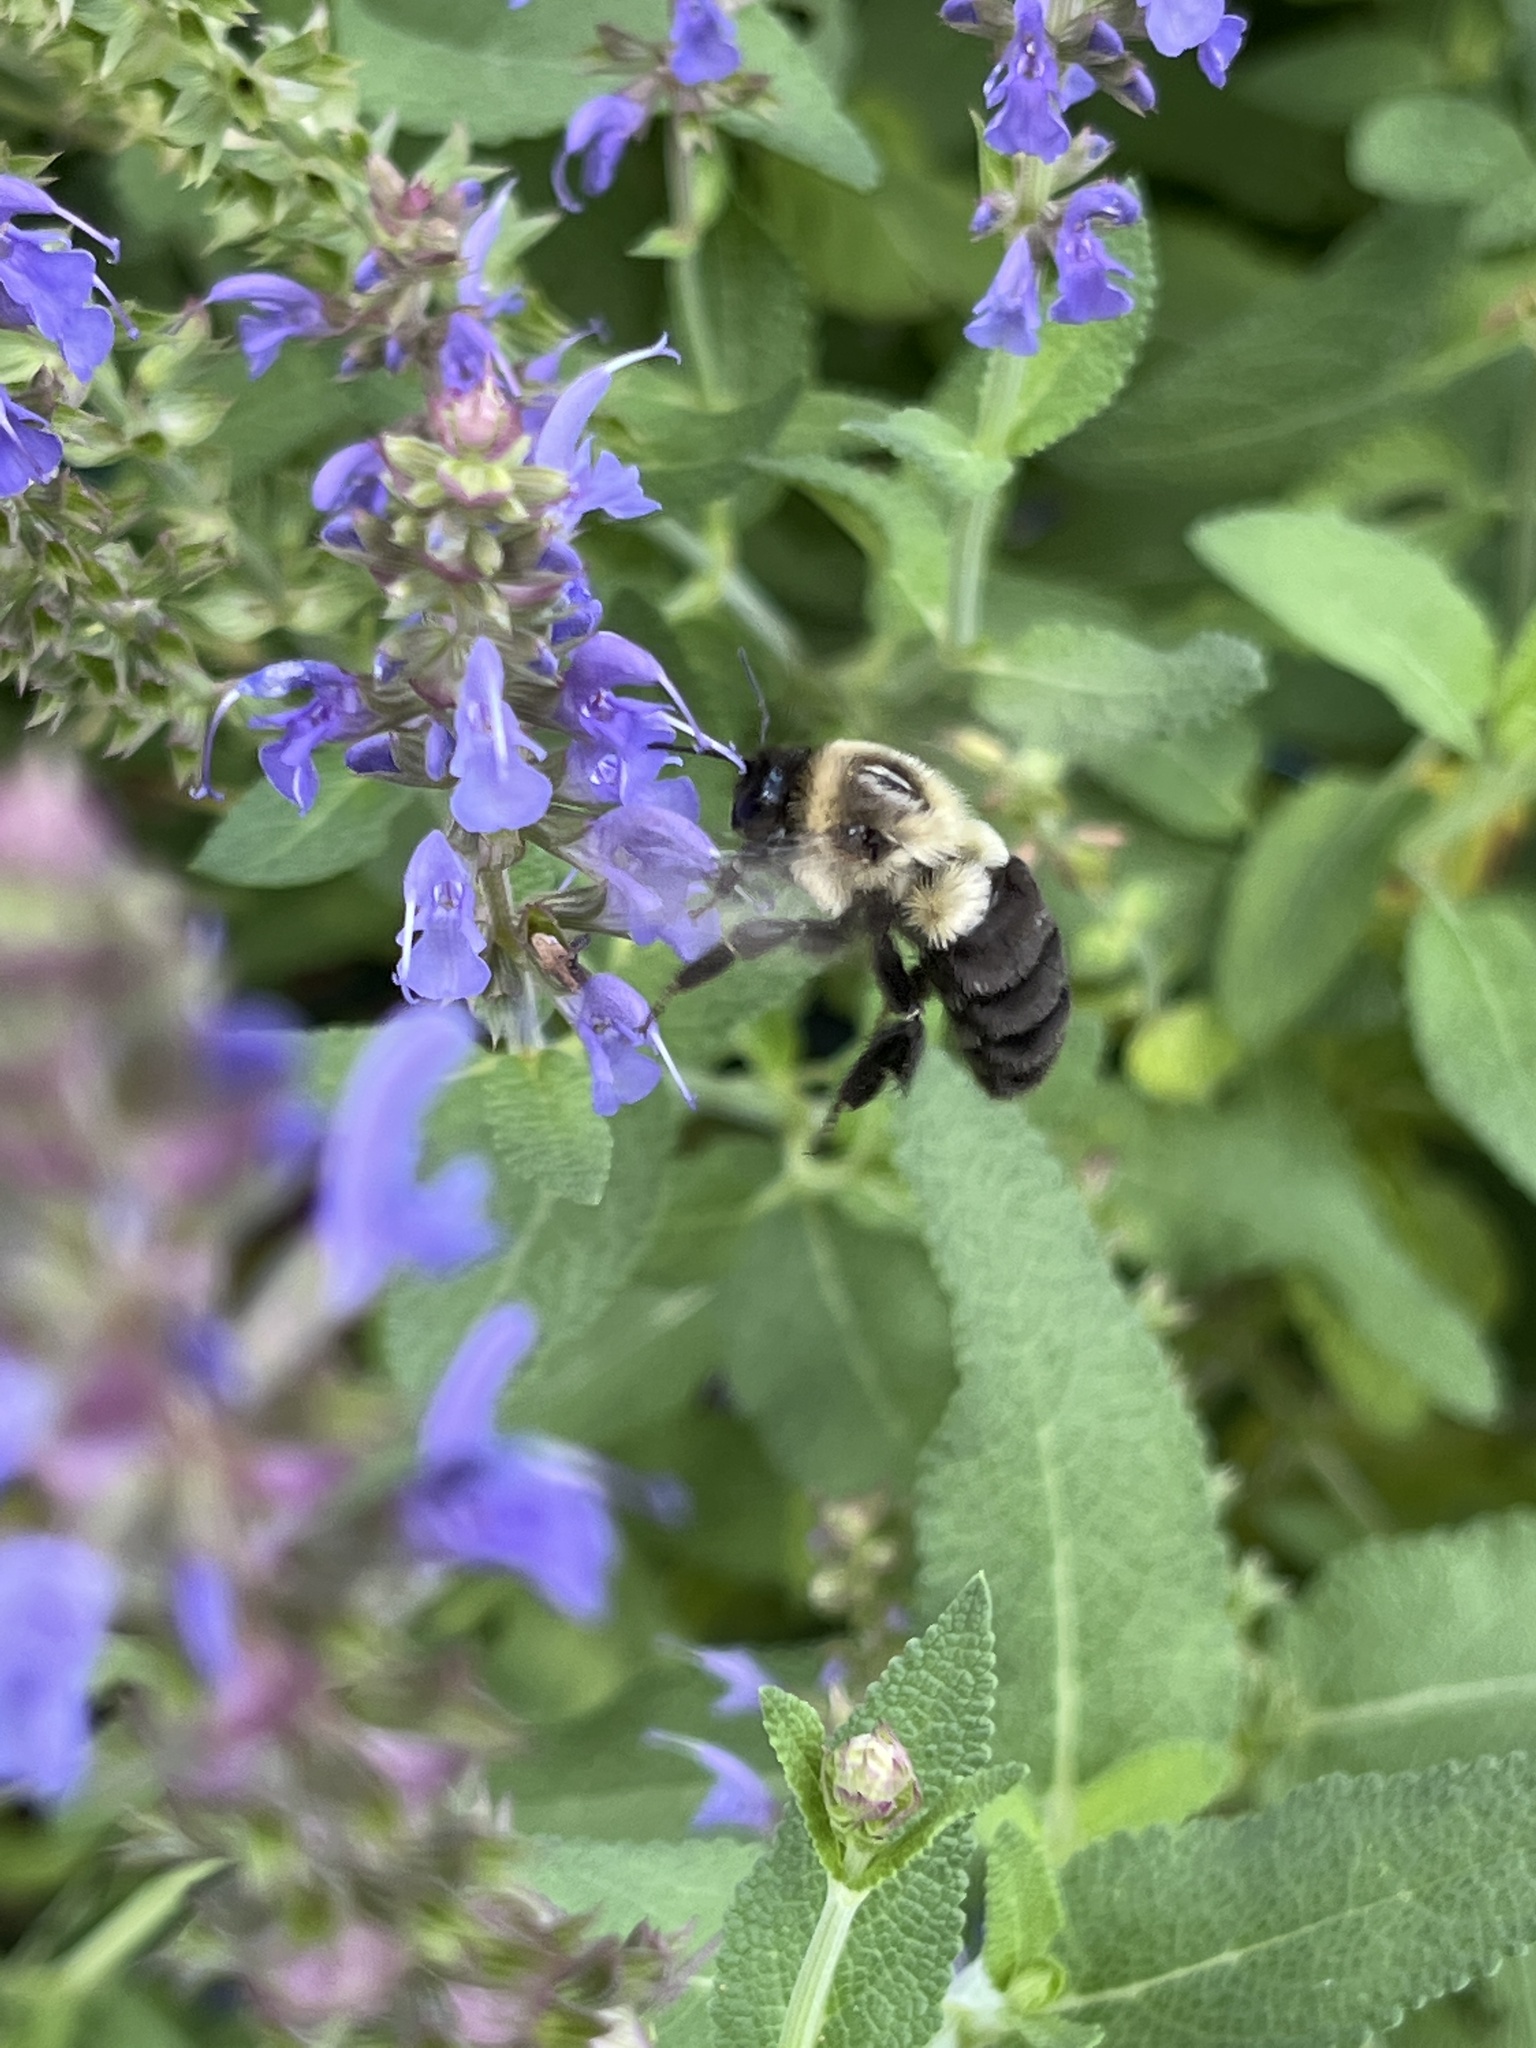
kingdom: Animalia
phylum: Arthropoda
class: Insecta
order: Hymenoptera
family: Apidae
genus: Bombus
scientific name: Bombus impatiens
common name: Common eastern bumble bee
